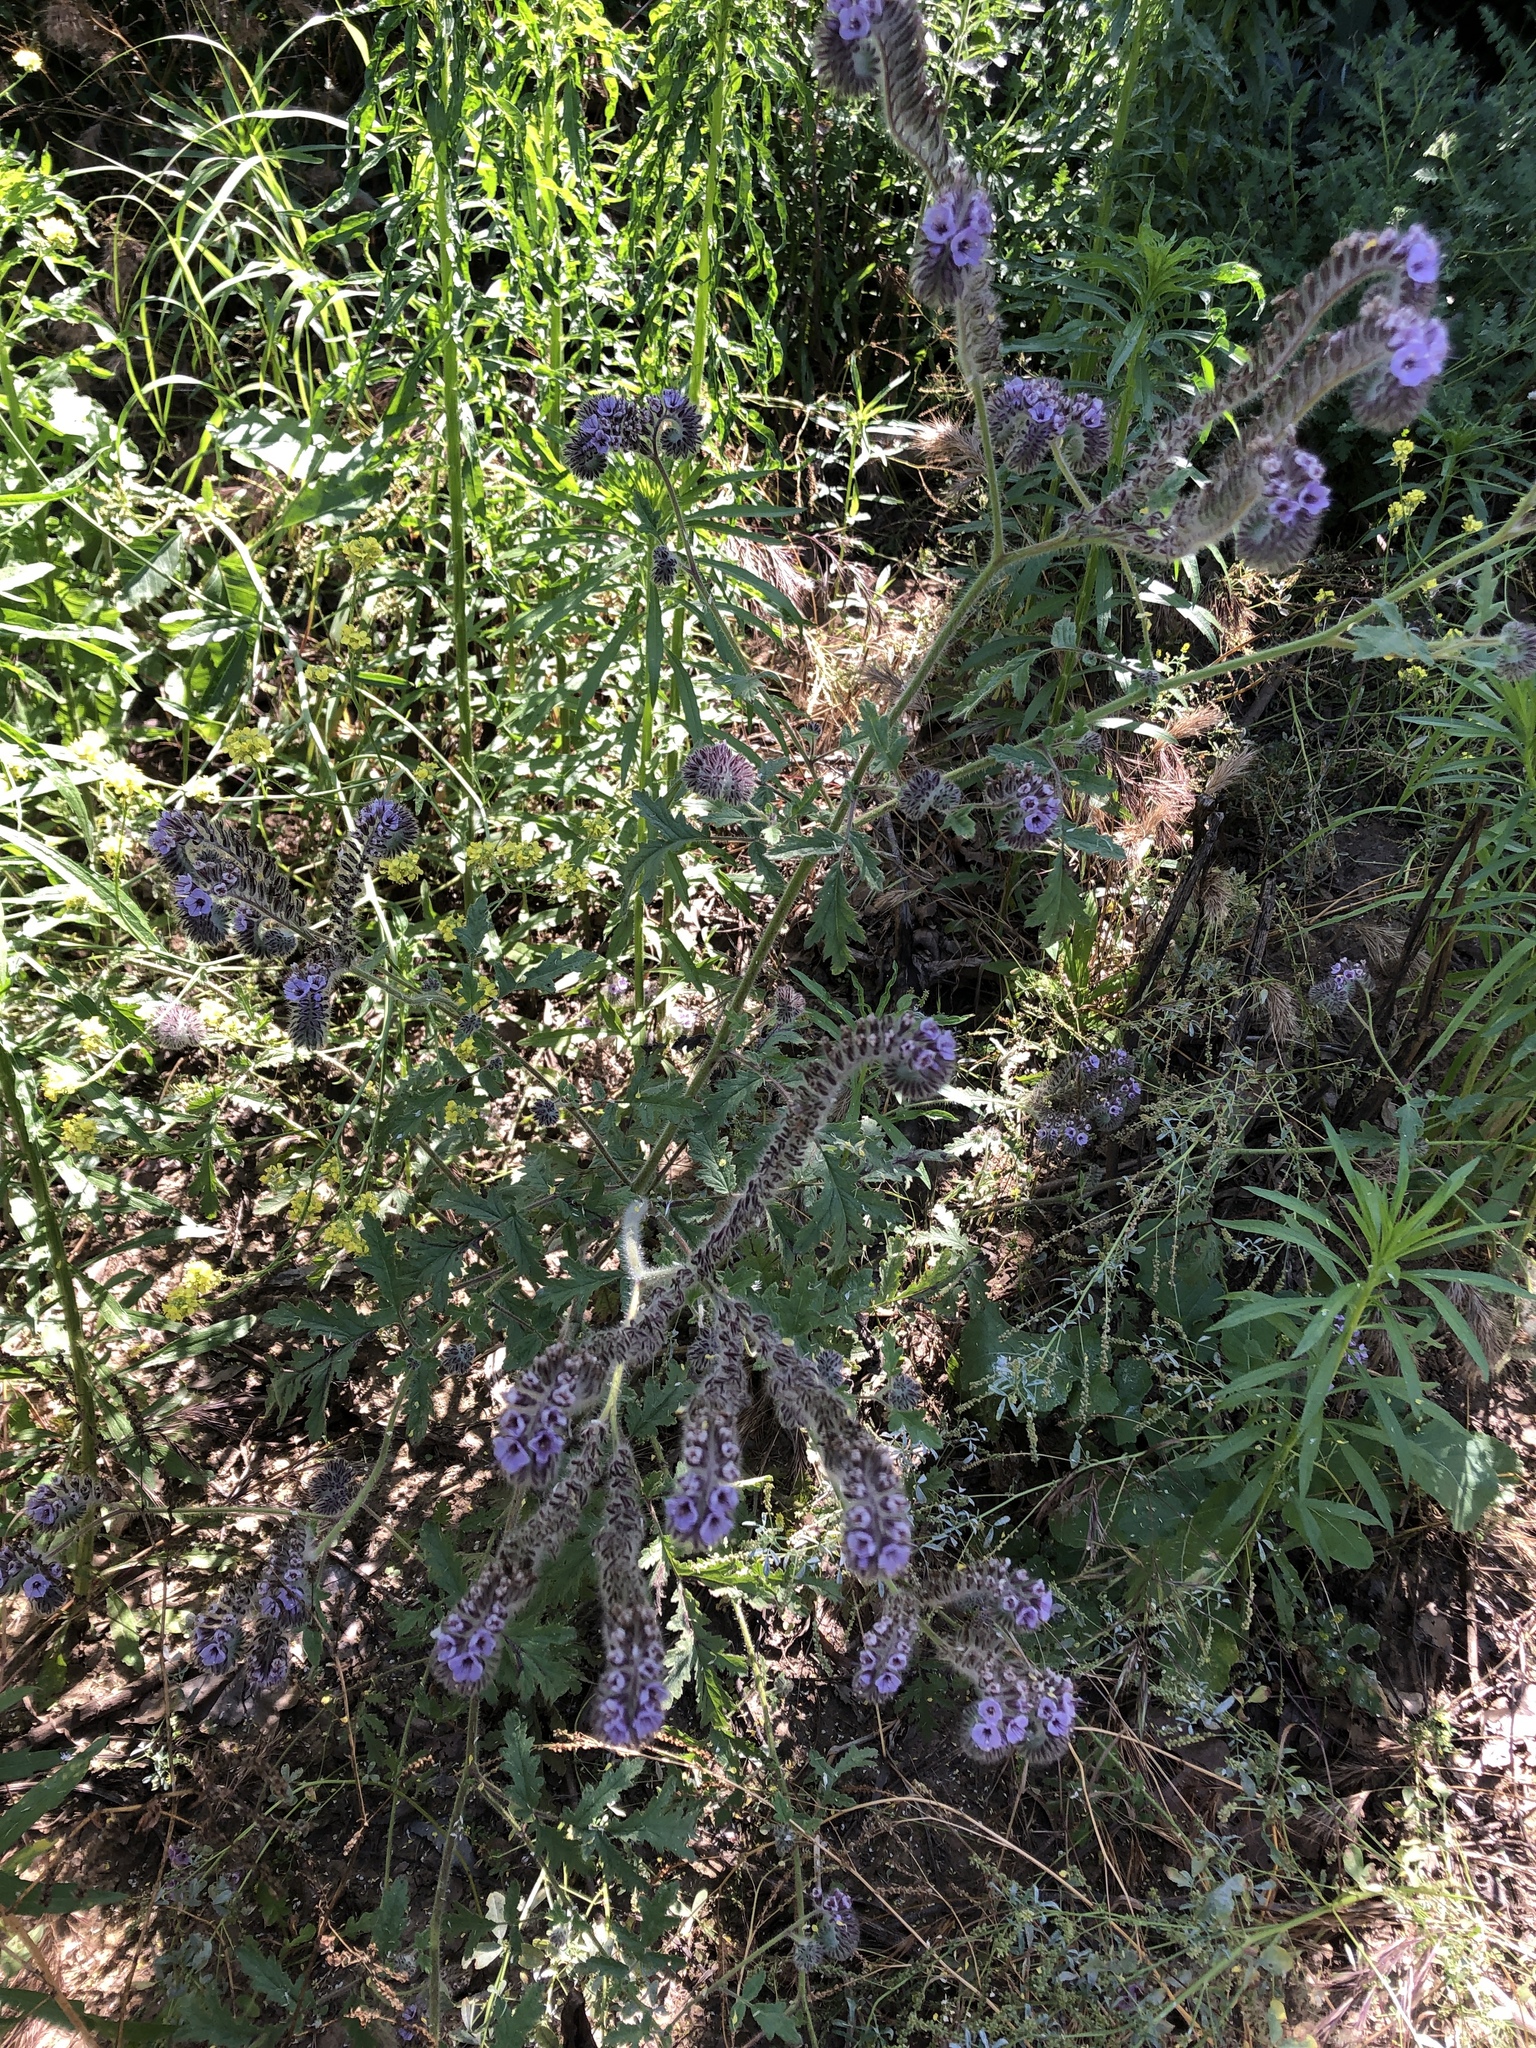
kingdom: Plantae
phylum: Tracheophyta
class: Magnoliopsida
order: Boraginales
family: Hydrophyllaceae
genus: Phacelia
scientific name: Phacelia hubbyi
